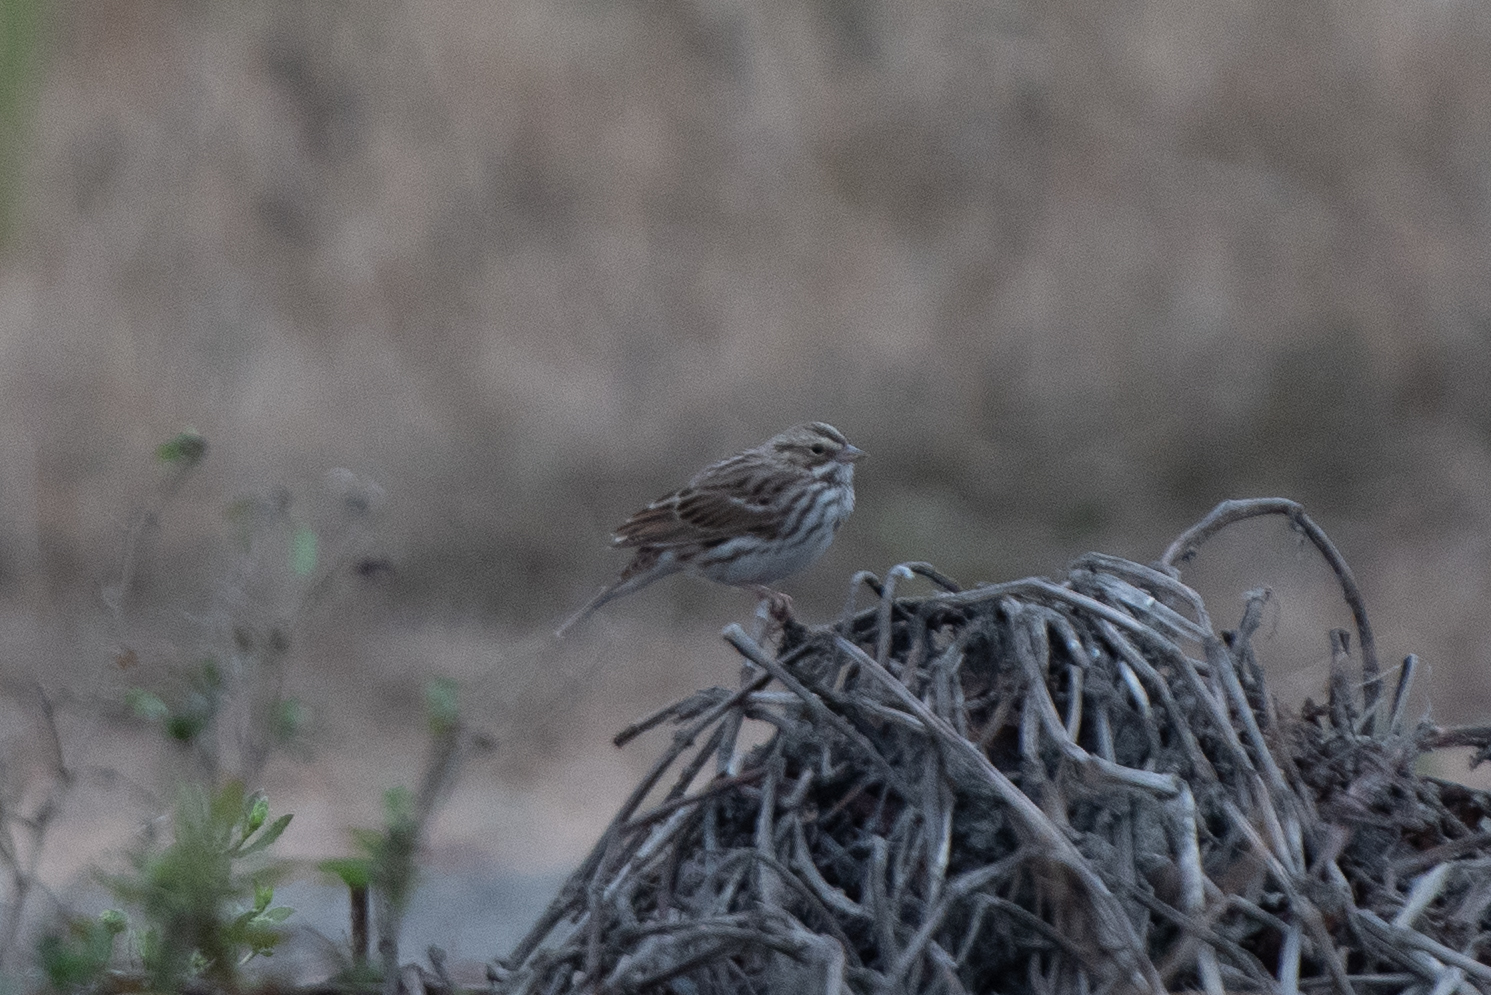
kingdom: Animalia
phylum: Chordata
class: Aves
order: Passeriformes
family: Passerellidae
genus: Passerculus
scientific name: Passerculus sandwichensis
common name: Savannah sparrow
